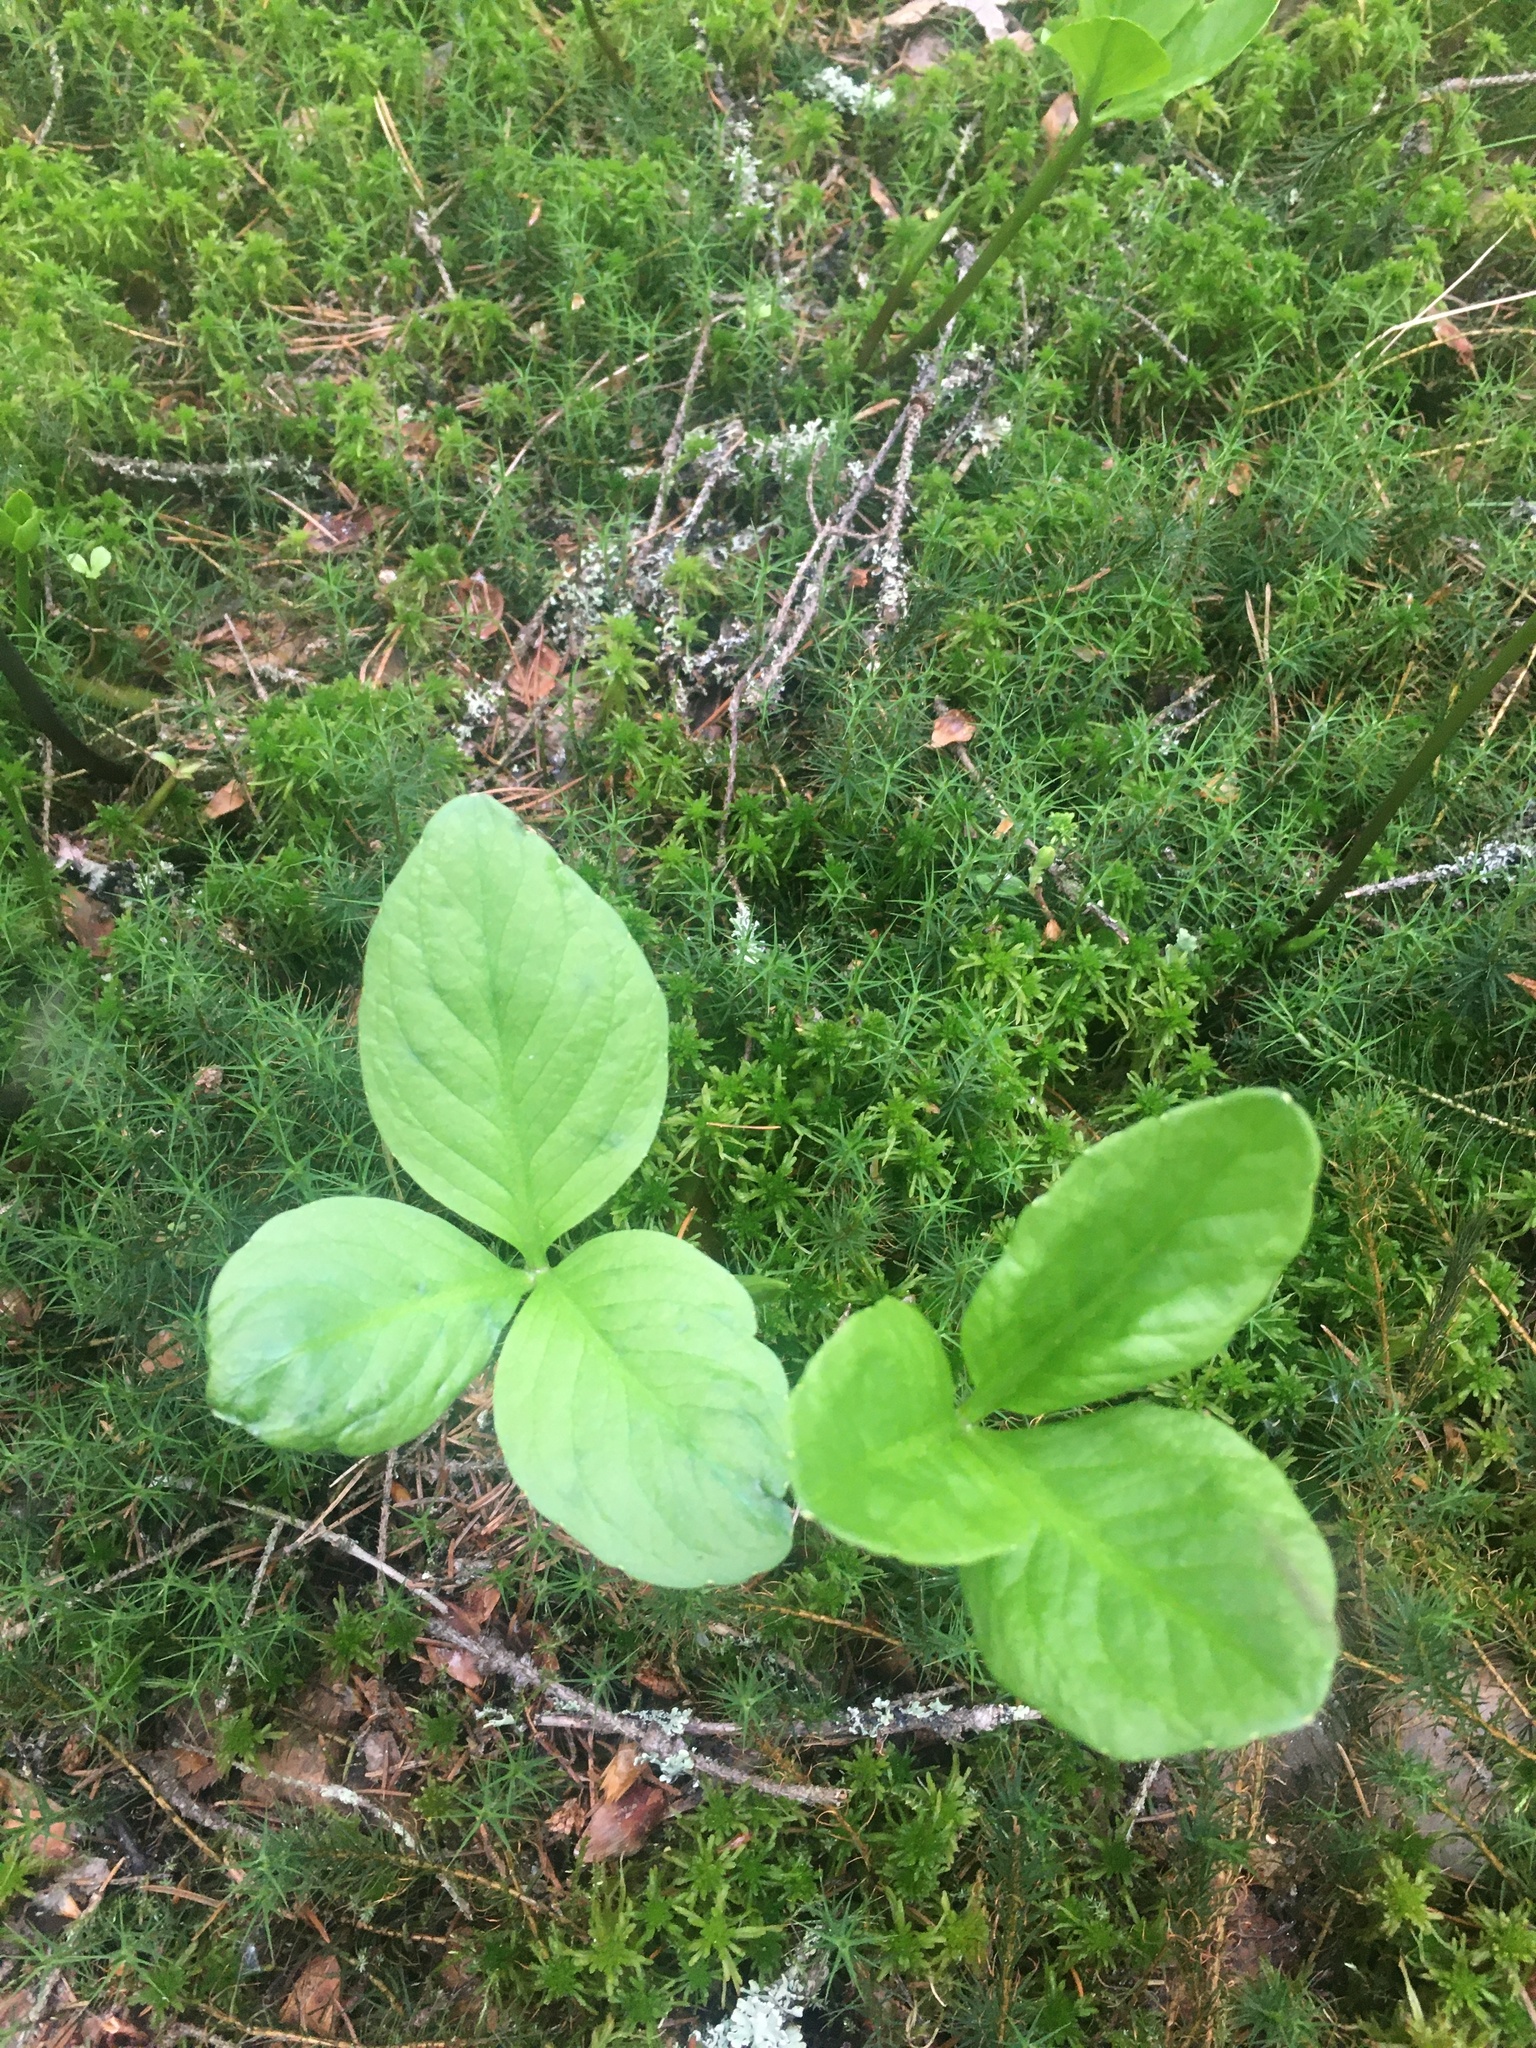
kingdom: Plantae
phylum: Tracheophyta
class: Magnoliopsida
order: Asterales
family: Menyanthaceae
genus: Menyanthes
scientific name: Menyanthes trifoliata
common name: Bogbean
